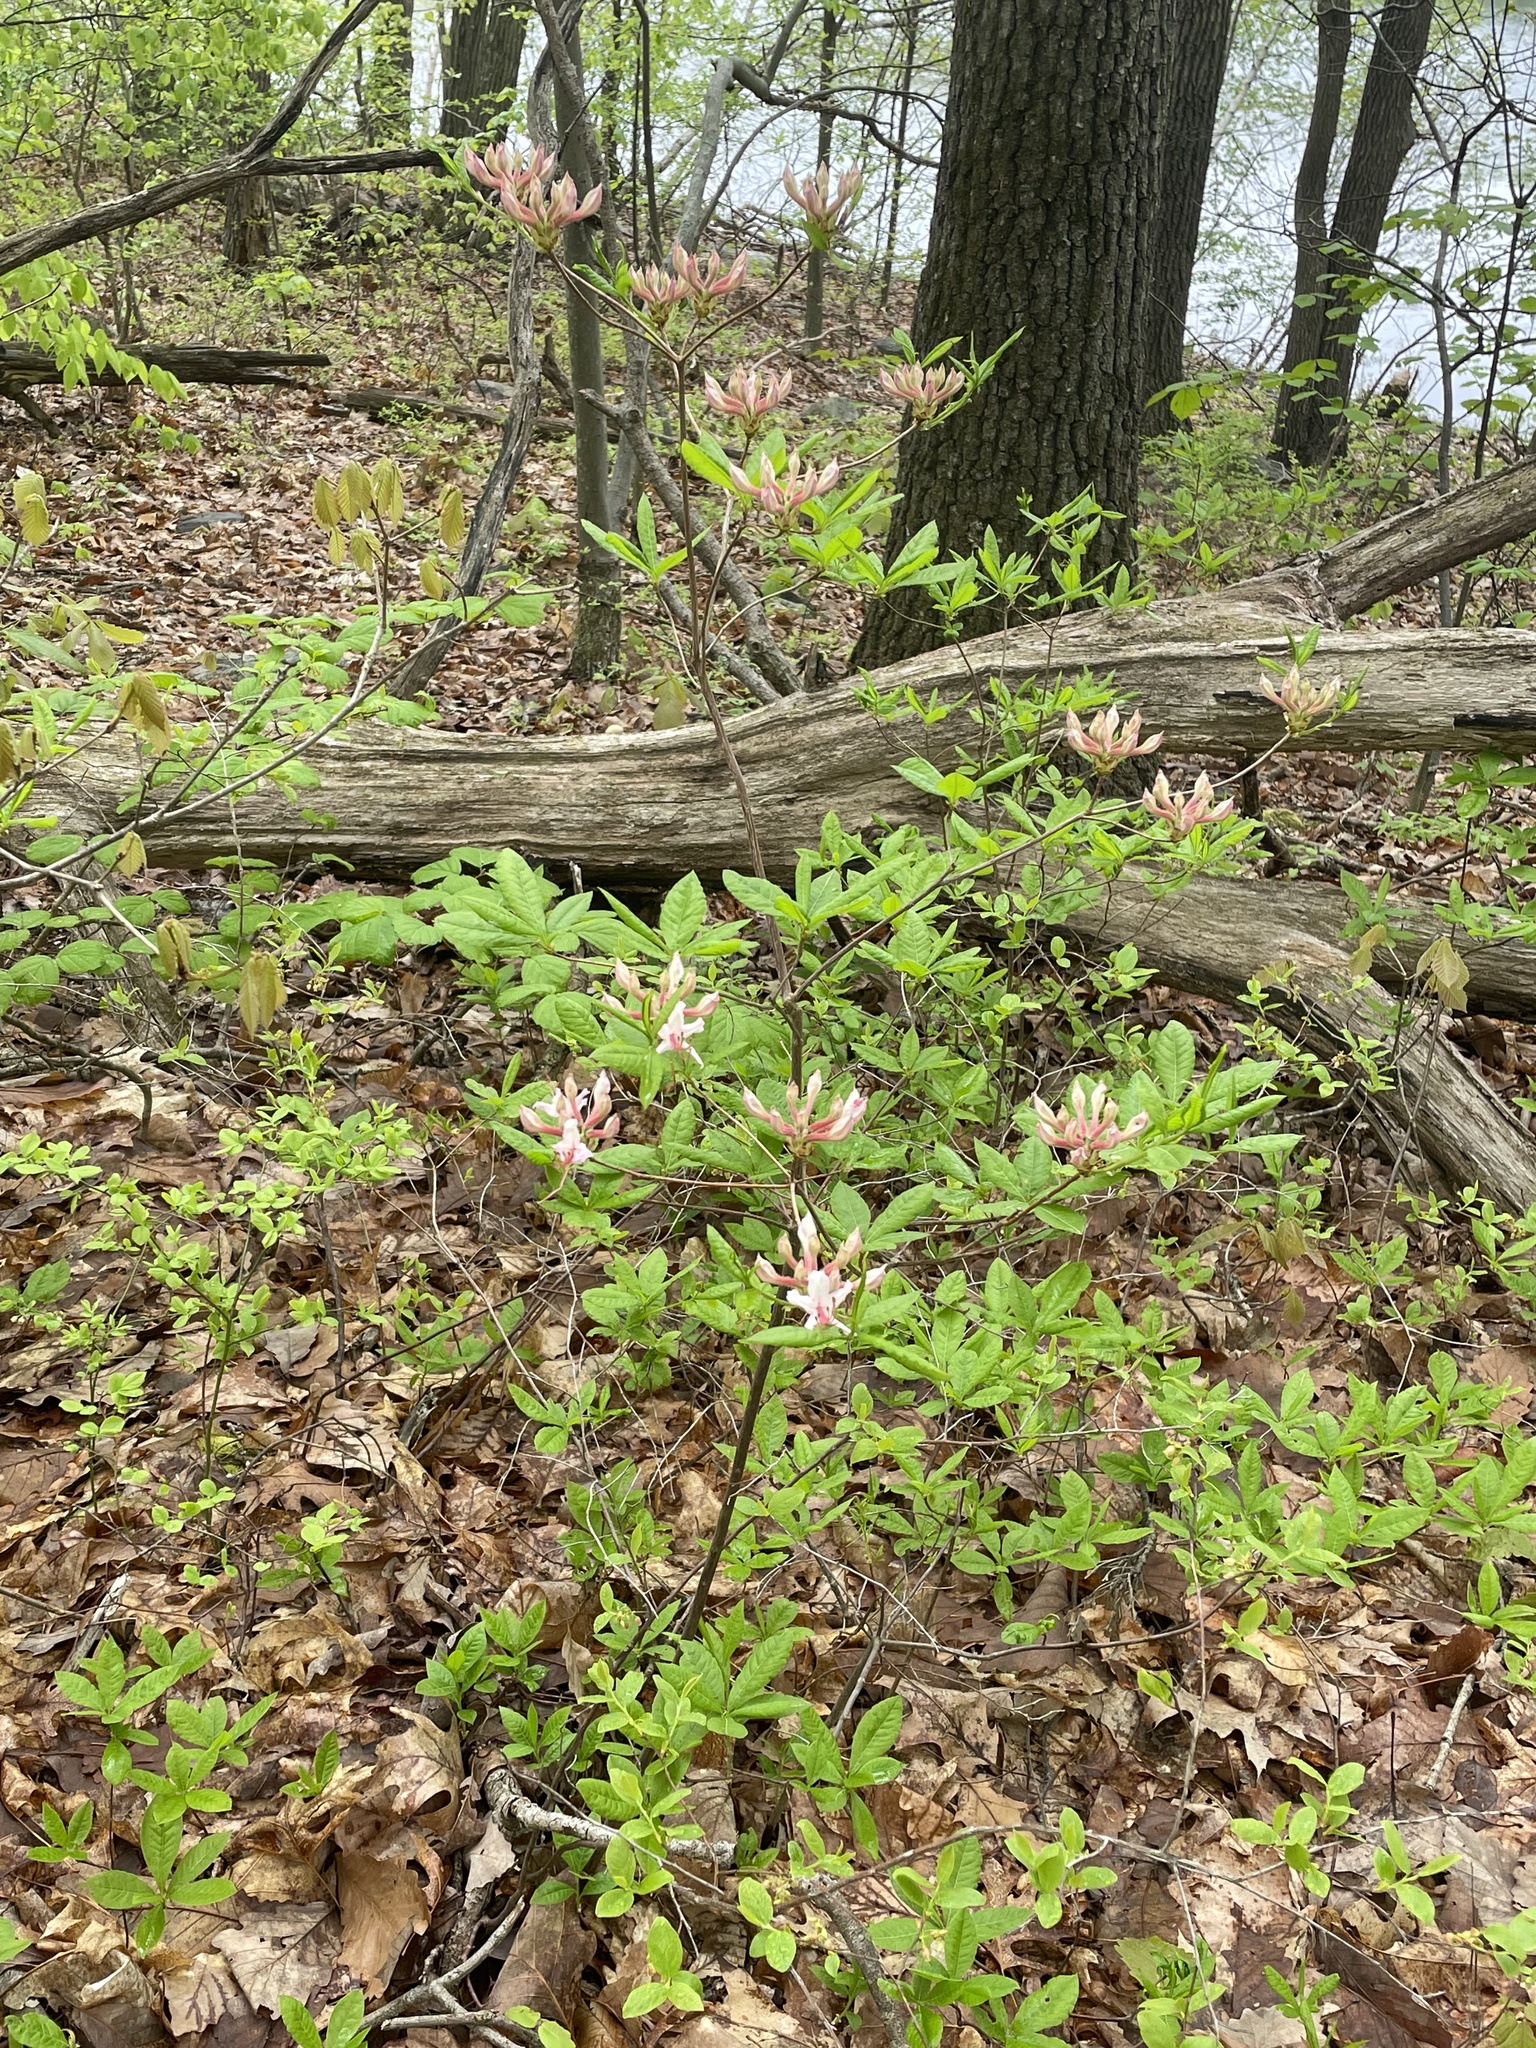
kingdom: Plantae
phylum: Tracheophyta
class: Magnoliopsida
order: Ericales
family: Ericaceae
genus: Rhododendron
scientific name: Rhododendron periclymenoides
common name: Election-pink
